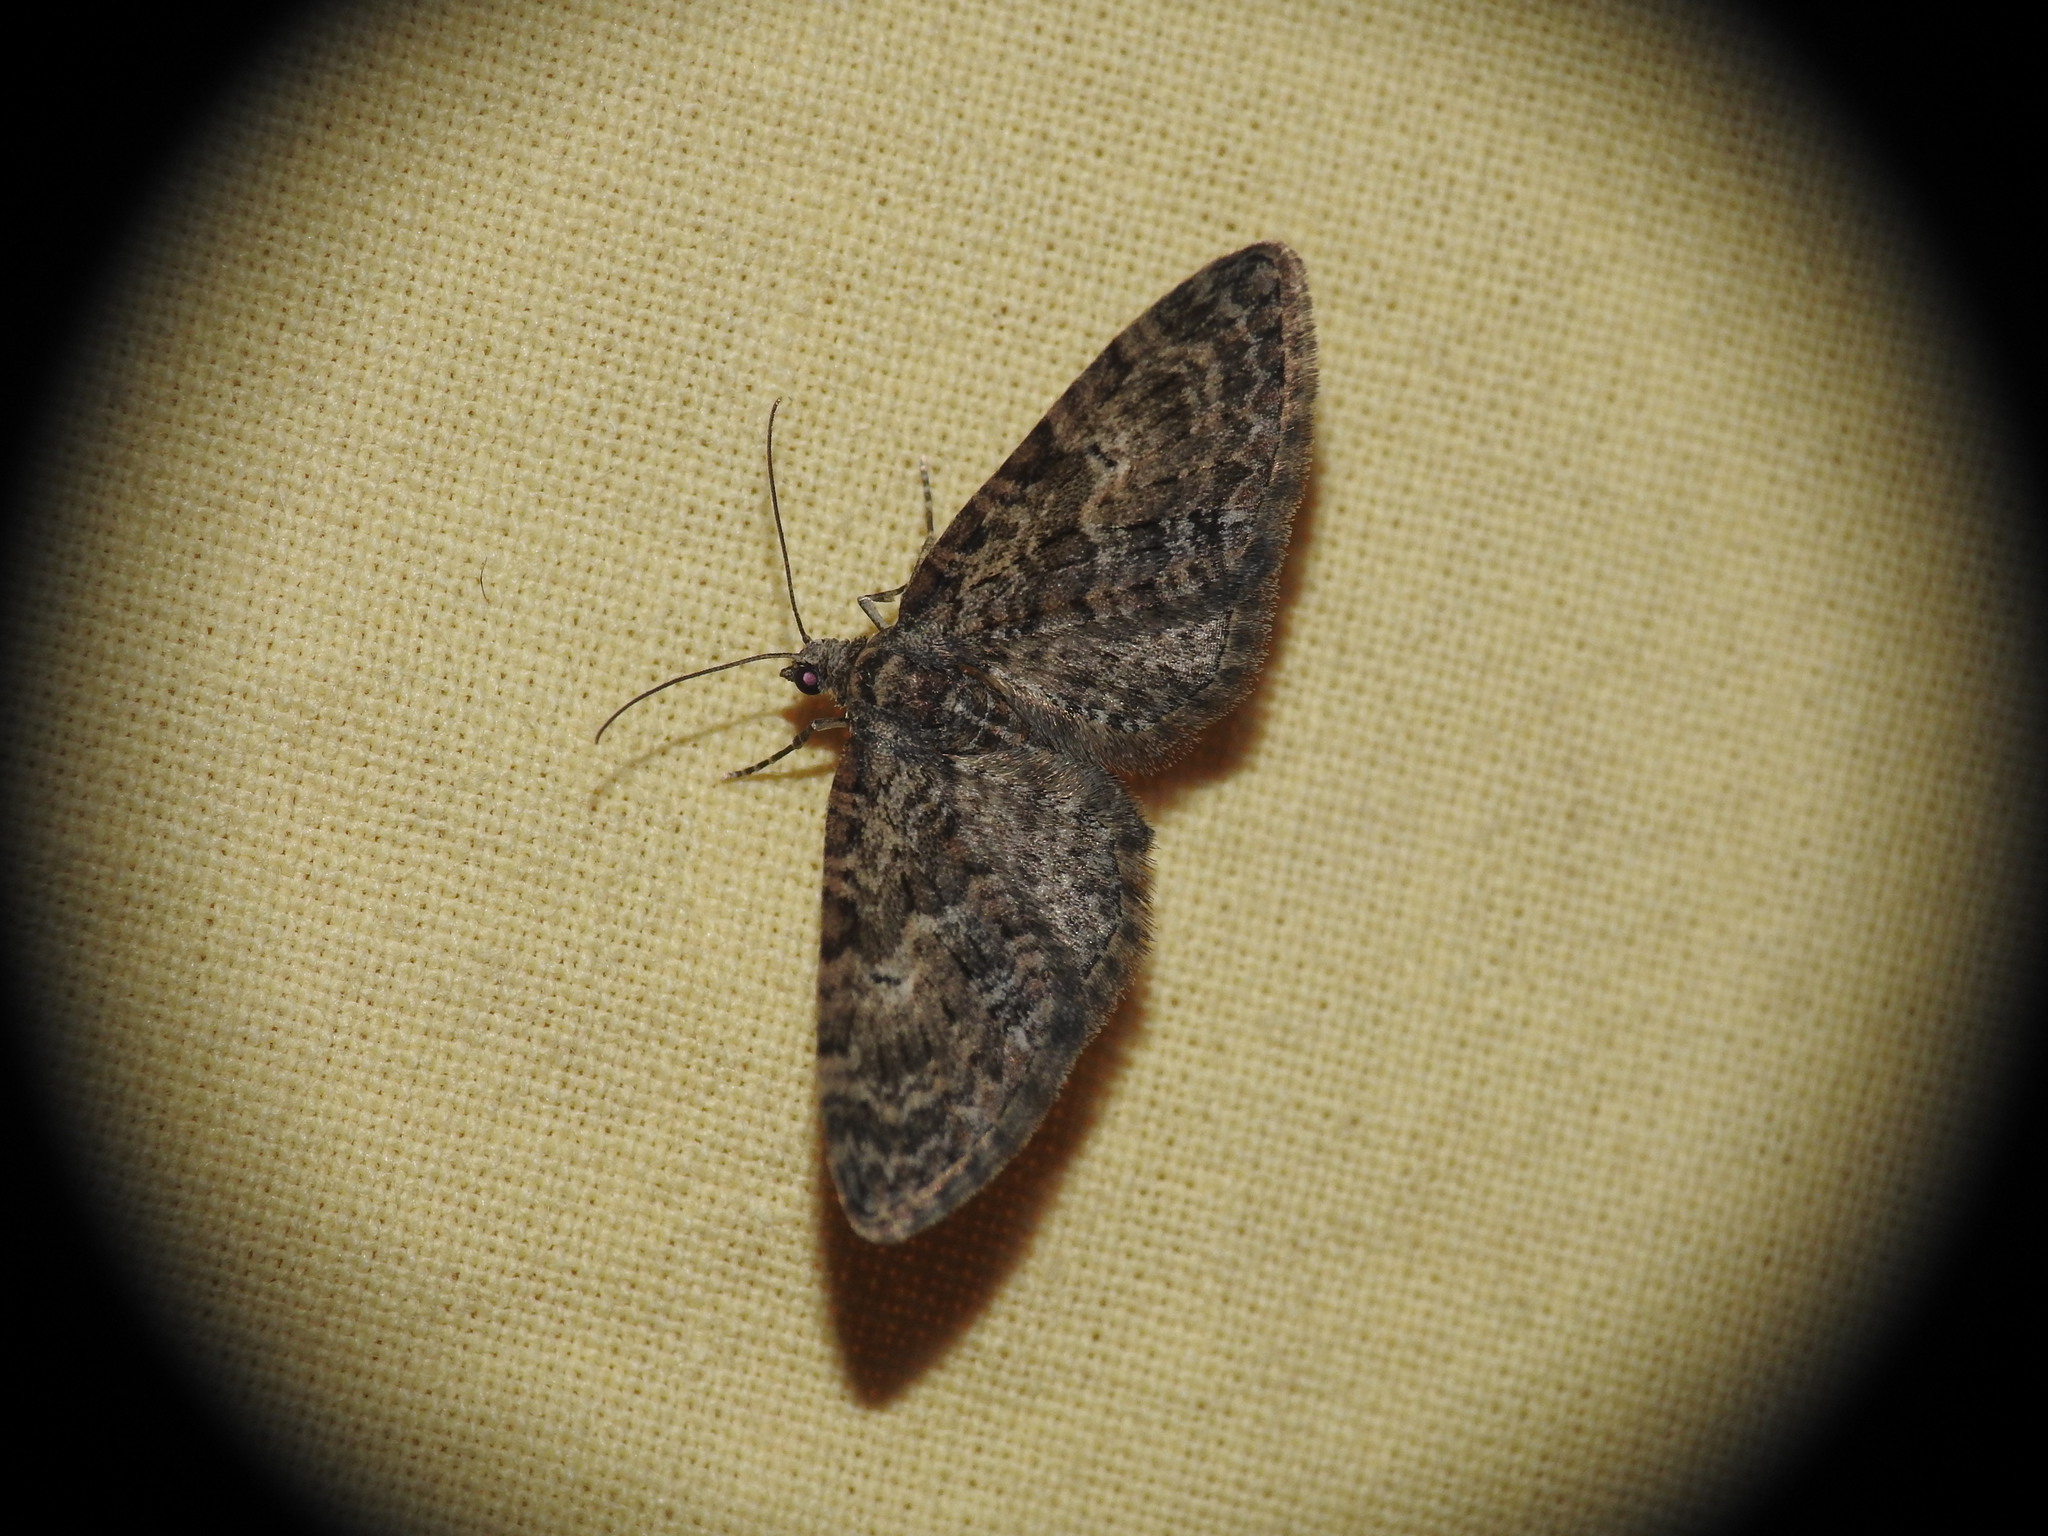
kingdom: Animalia
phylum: Arthropoda
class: Insecta
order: Lepidoptera
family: Geometridae
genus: Eupithecia
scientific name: Eupithecia abbreviata
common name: Brindled pug
